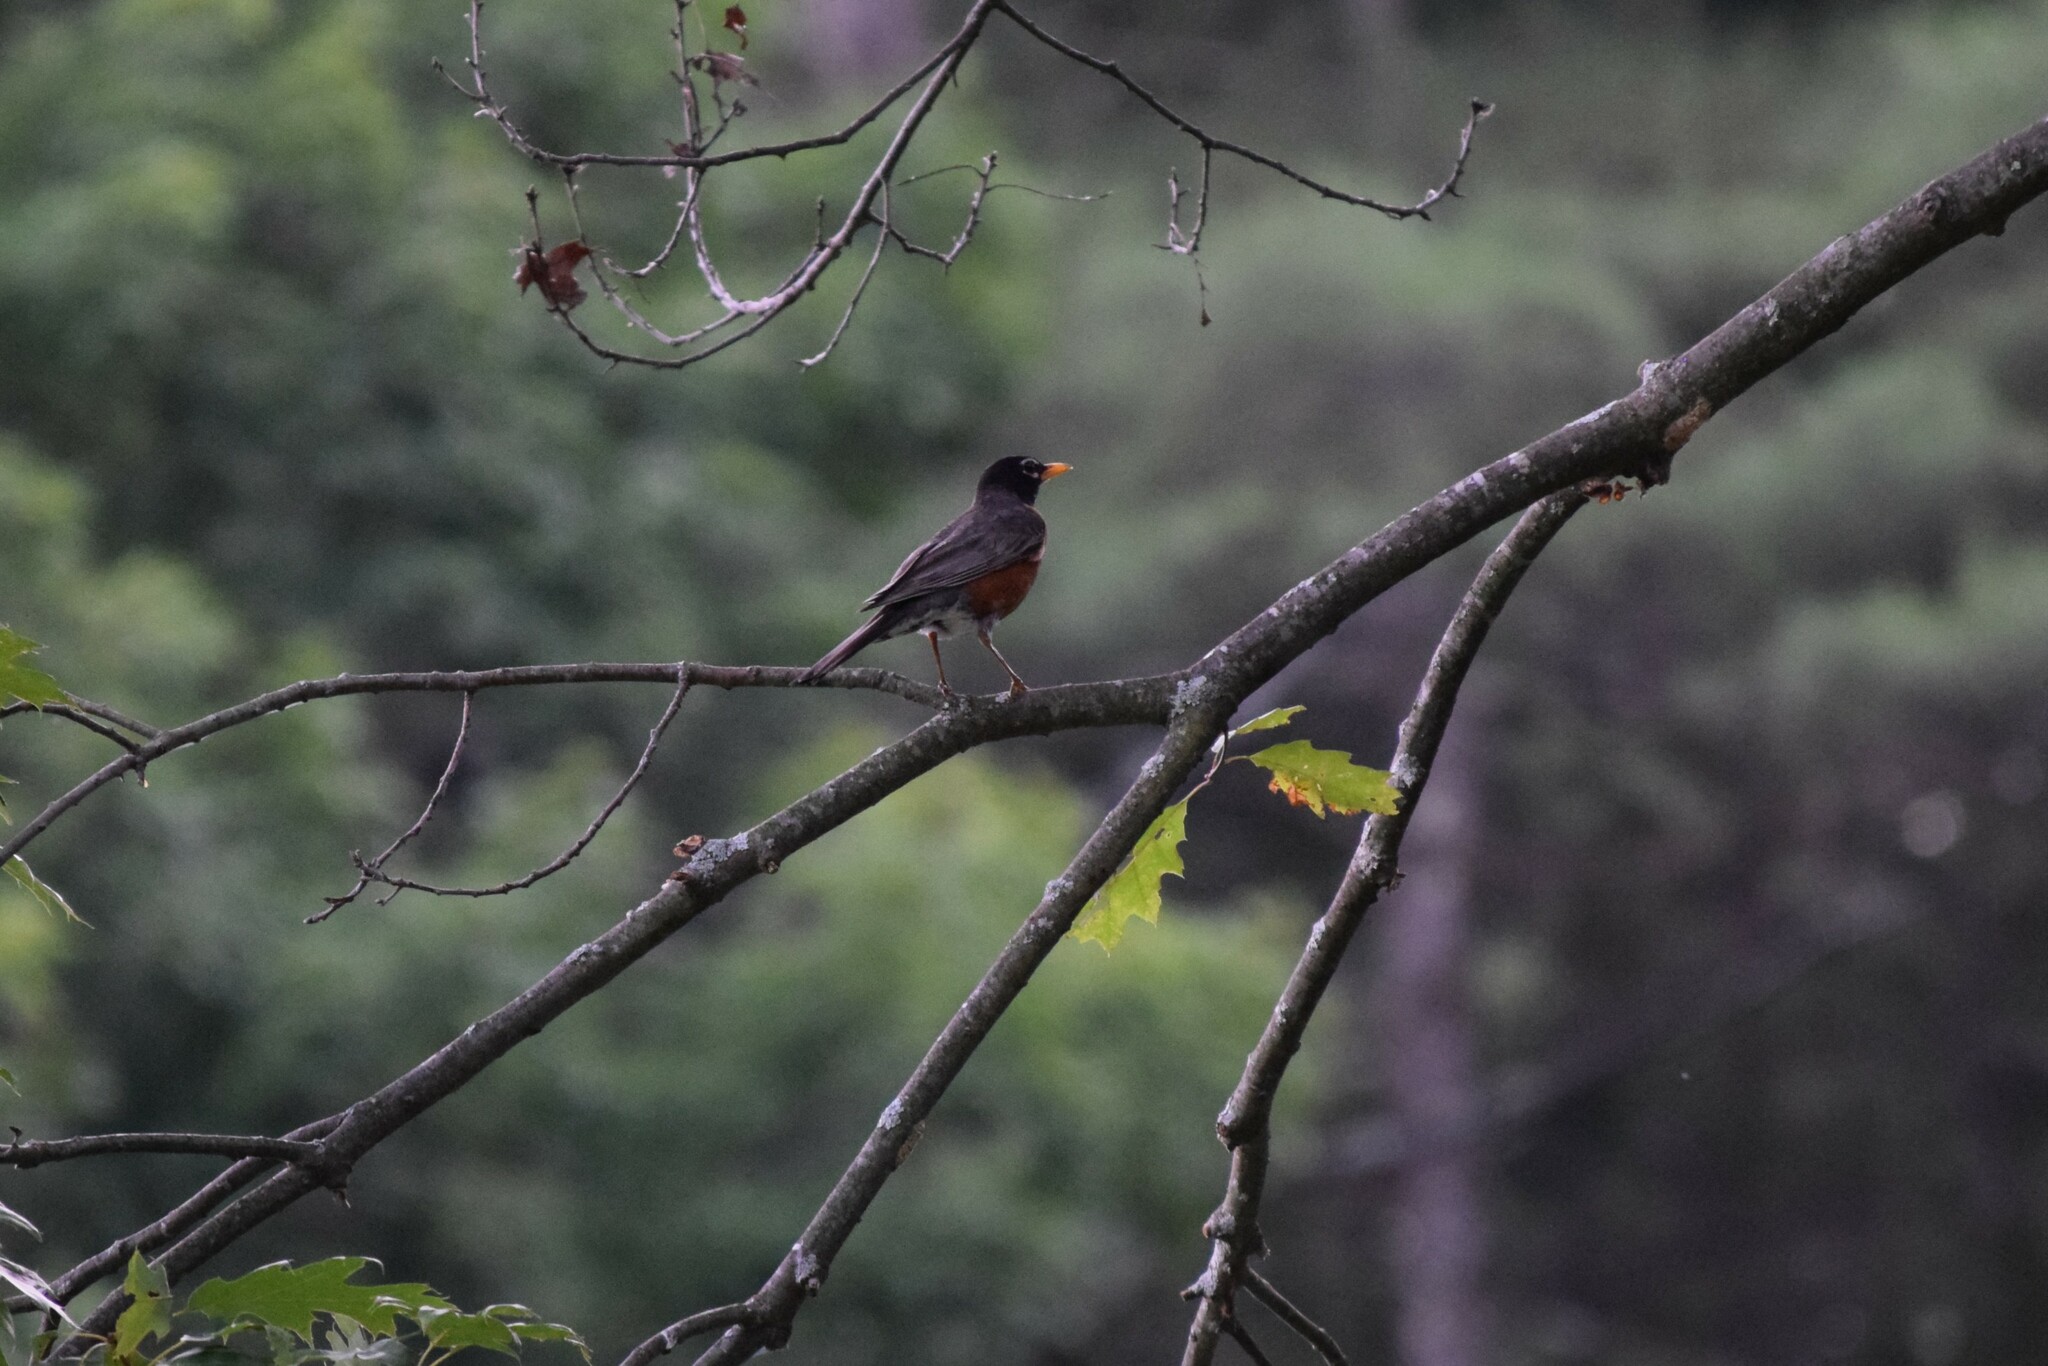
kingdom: Animalia
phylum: Chordata
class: Aves
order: Passeriformes
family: Turdidae
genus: Turdus
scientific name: Turdus migratorius
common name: American robin
